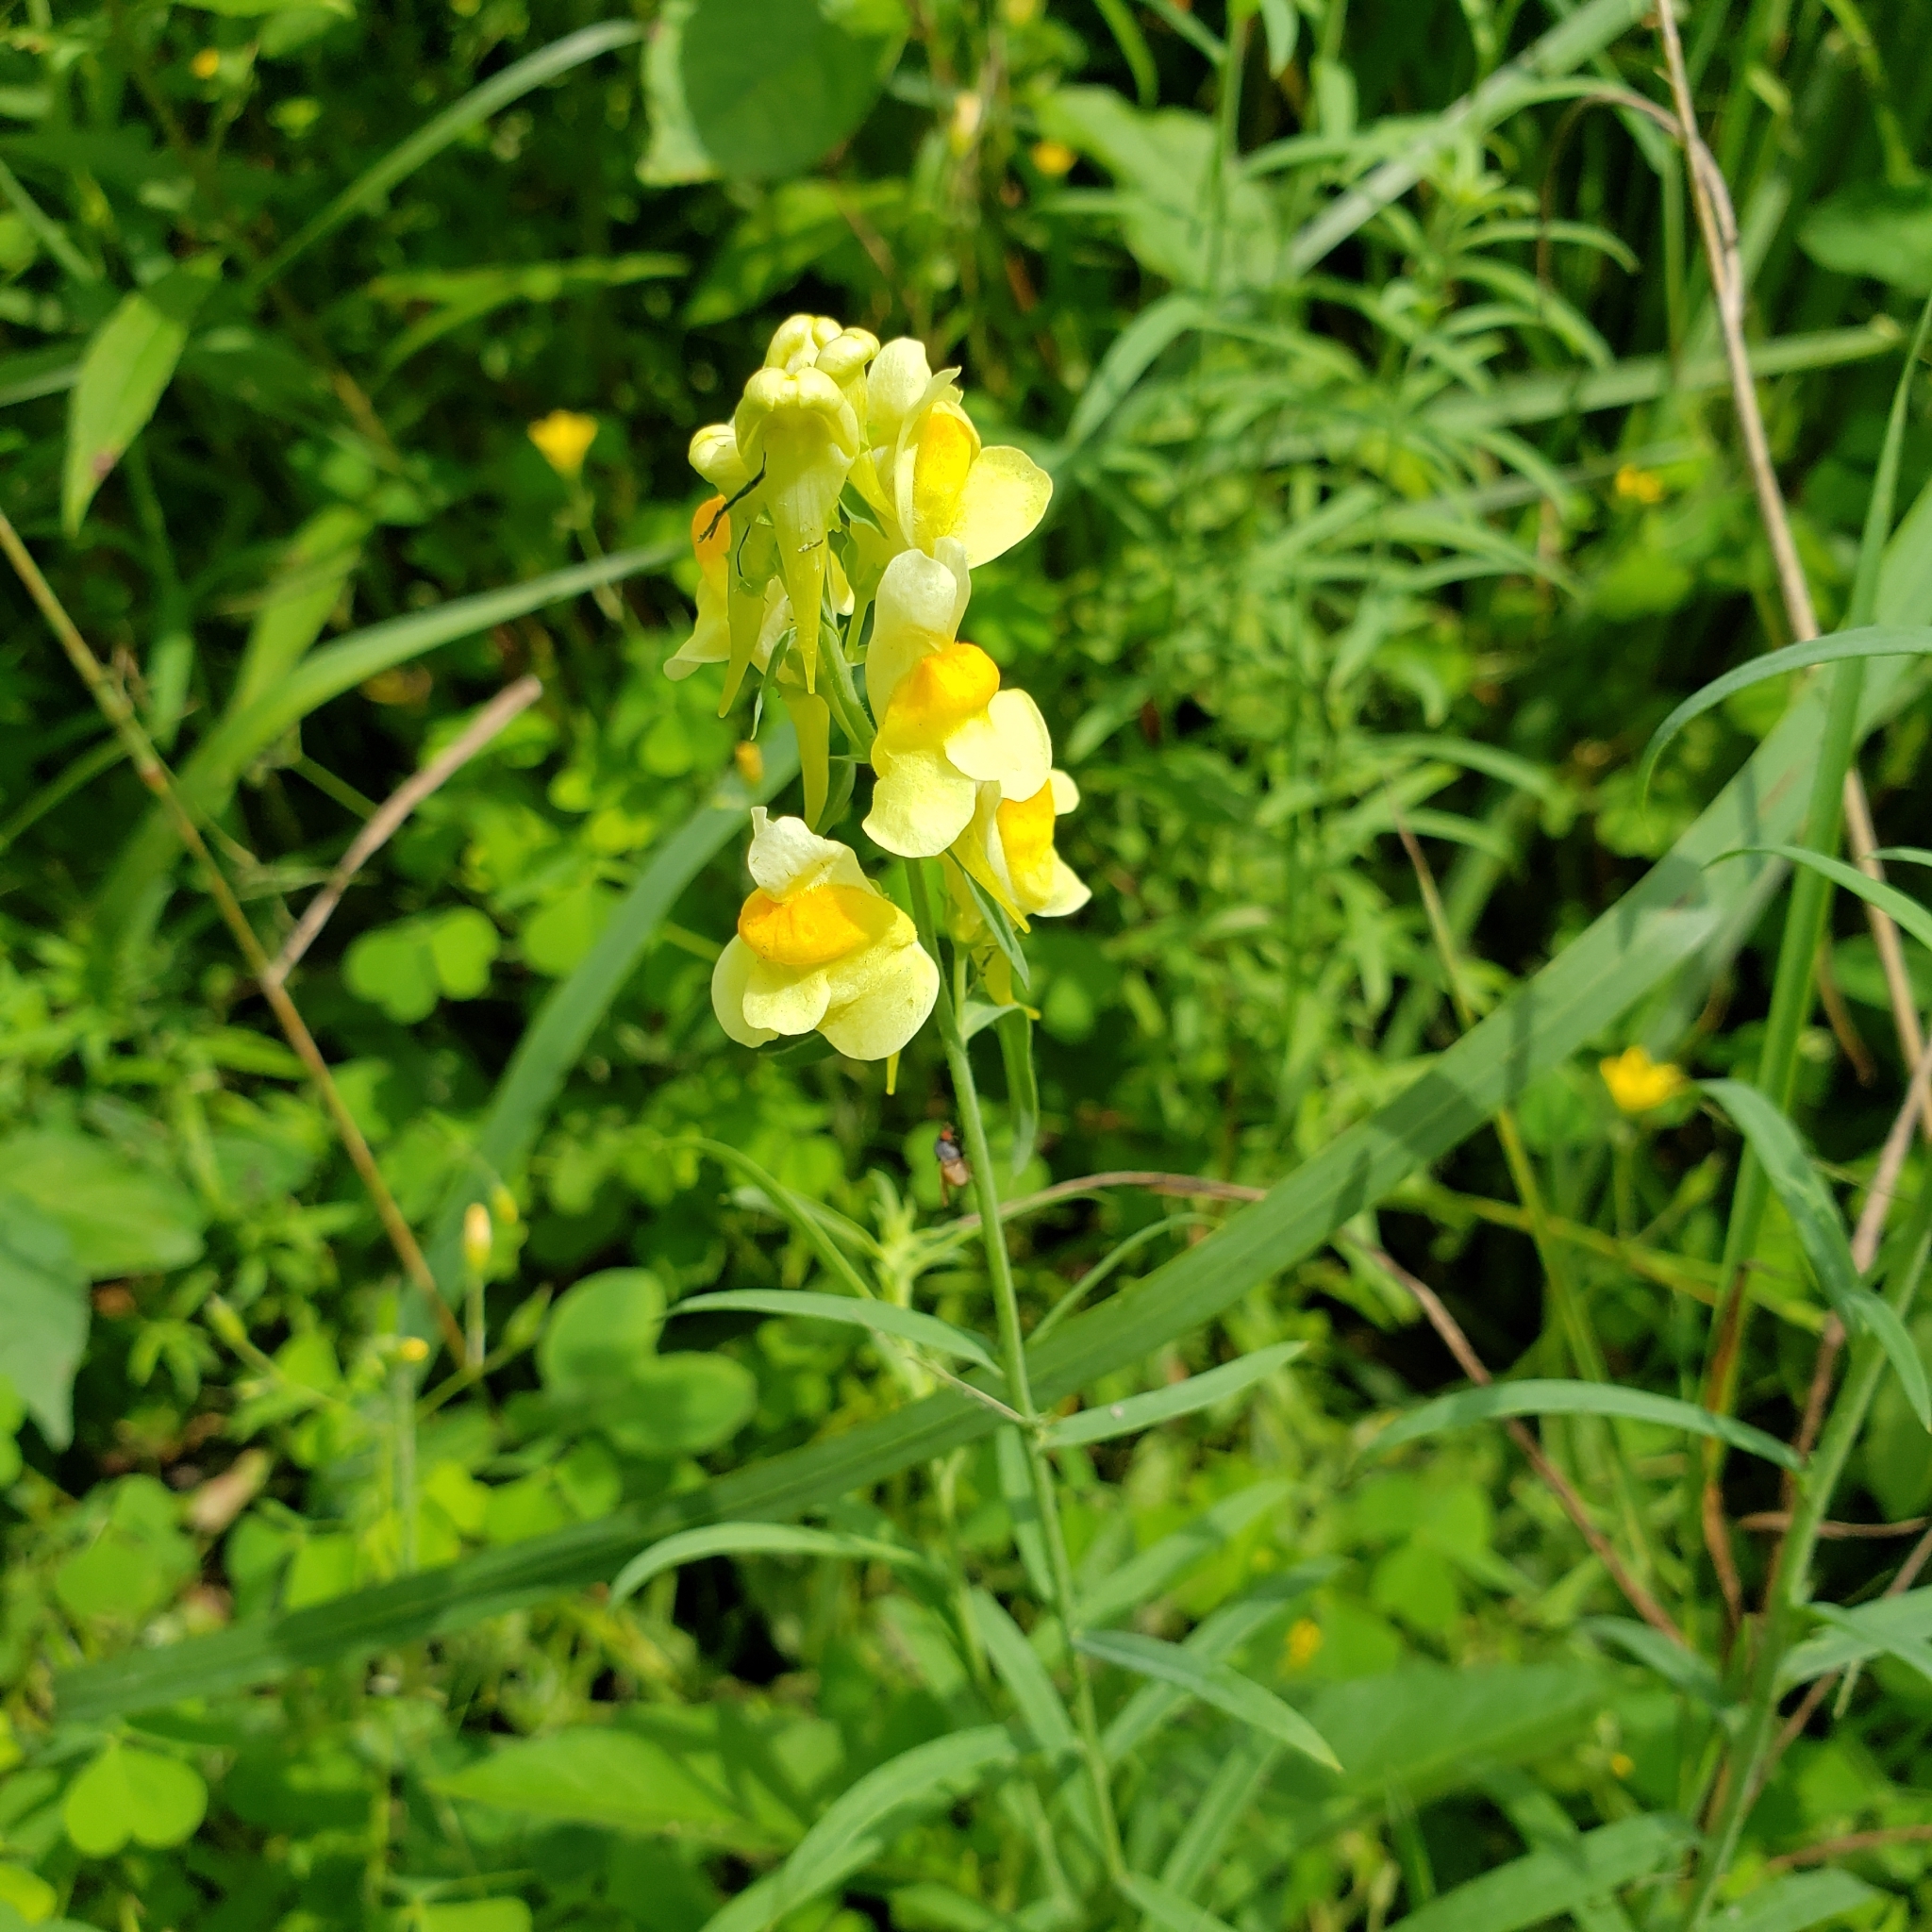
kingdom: Plantae
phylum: Tracheophyta
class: Magnoliopsida
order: Lamiales
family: Plantaginaceae
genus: Linaria
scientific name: Linaria vulgaris
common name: Butter and eggs
